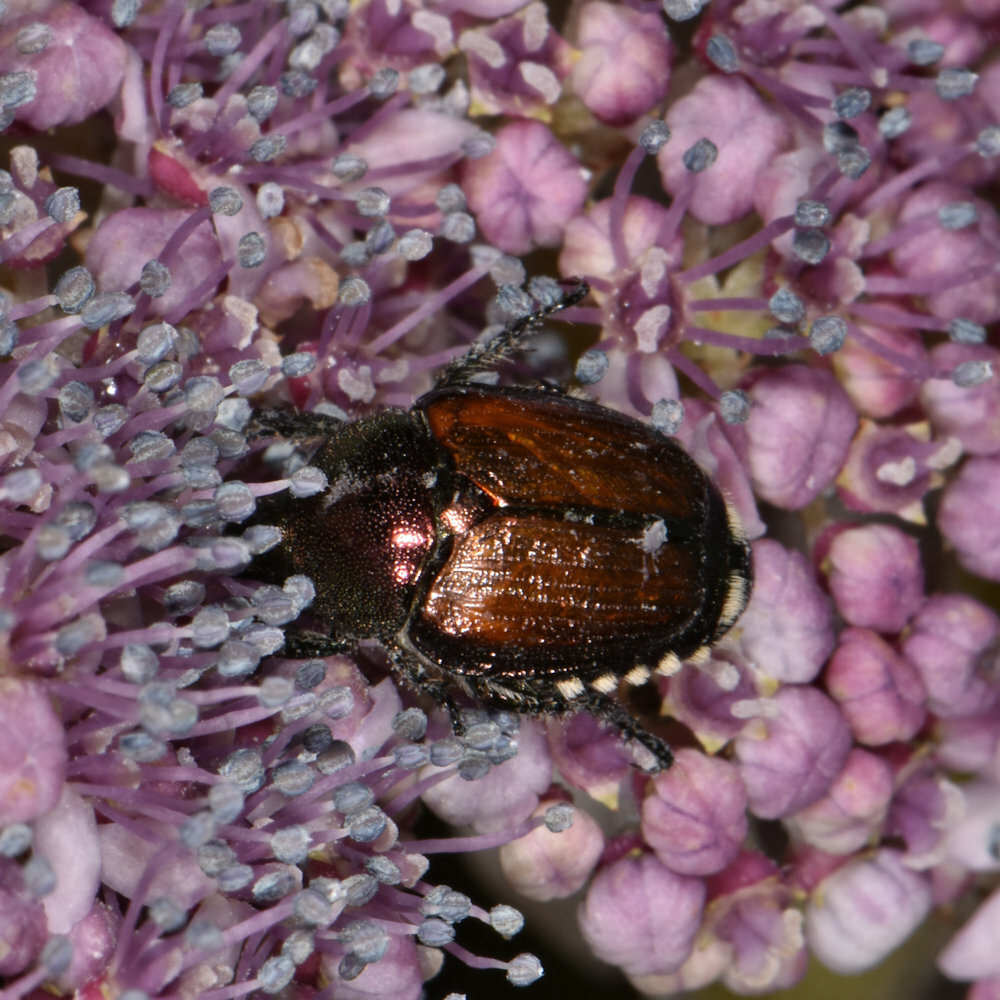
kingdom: Animalia
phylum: Arthropoda
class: Insecta
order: Coleoptera
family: Scarabaeidae
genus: Popillia
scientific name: Popillia japonica
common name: Japanese beetle
